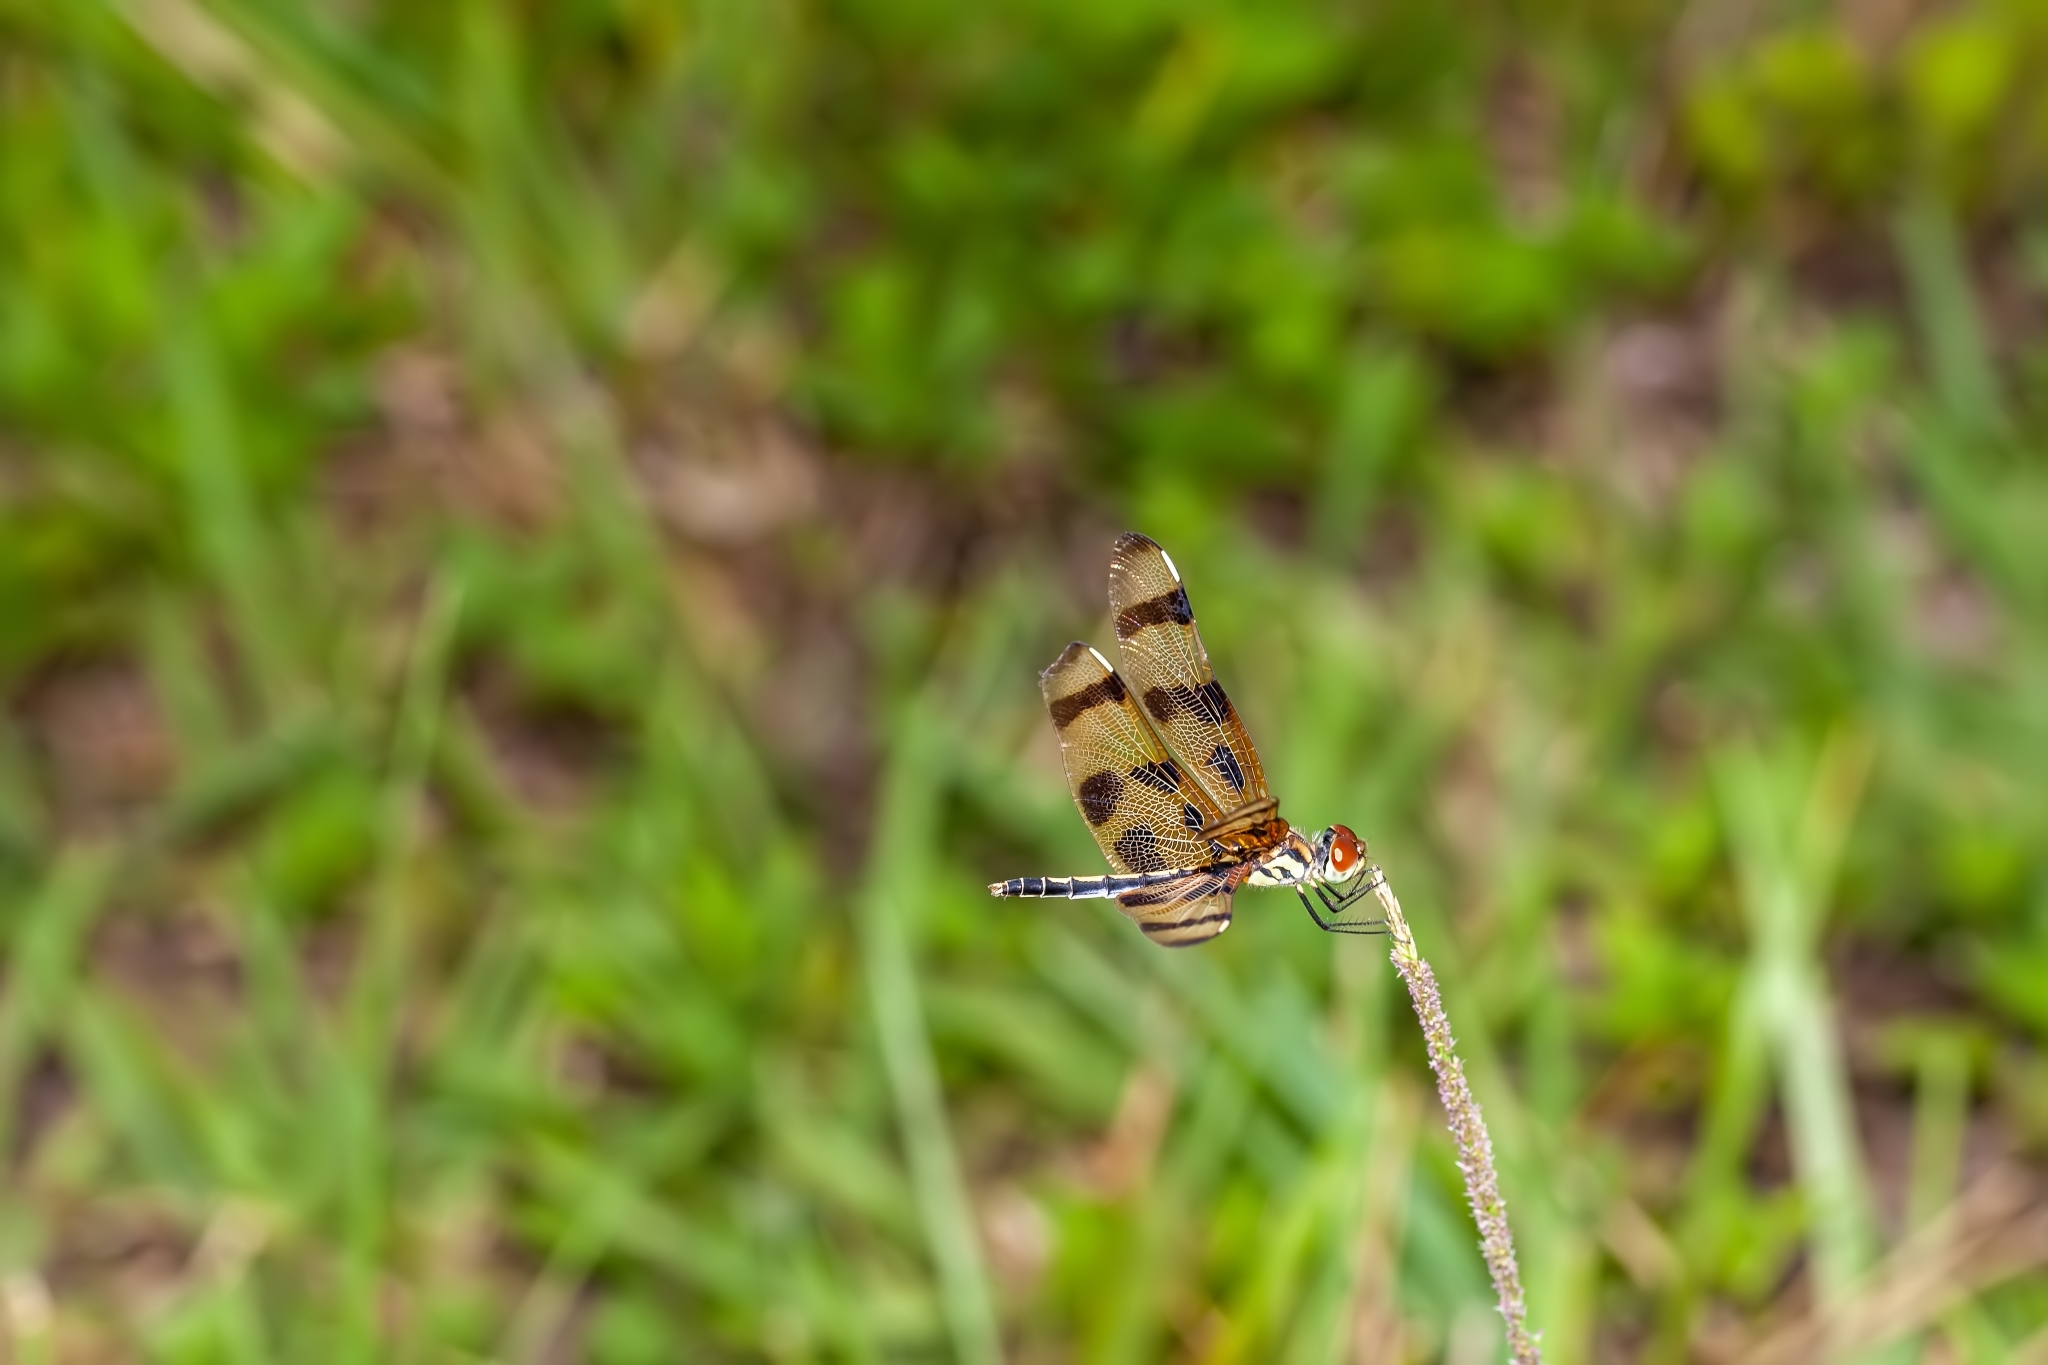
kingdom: Animalia
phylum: Arthropoda
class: Insecta
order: Odonata
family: Libellulidae
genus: Celithemis
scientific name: Celithemis eponina
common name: Halloween pennant
